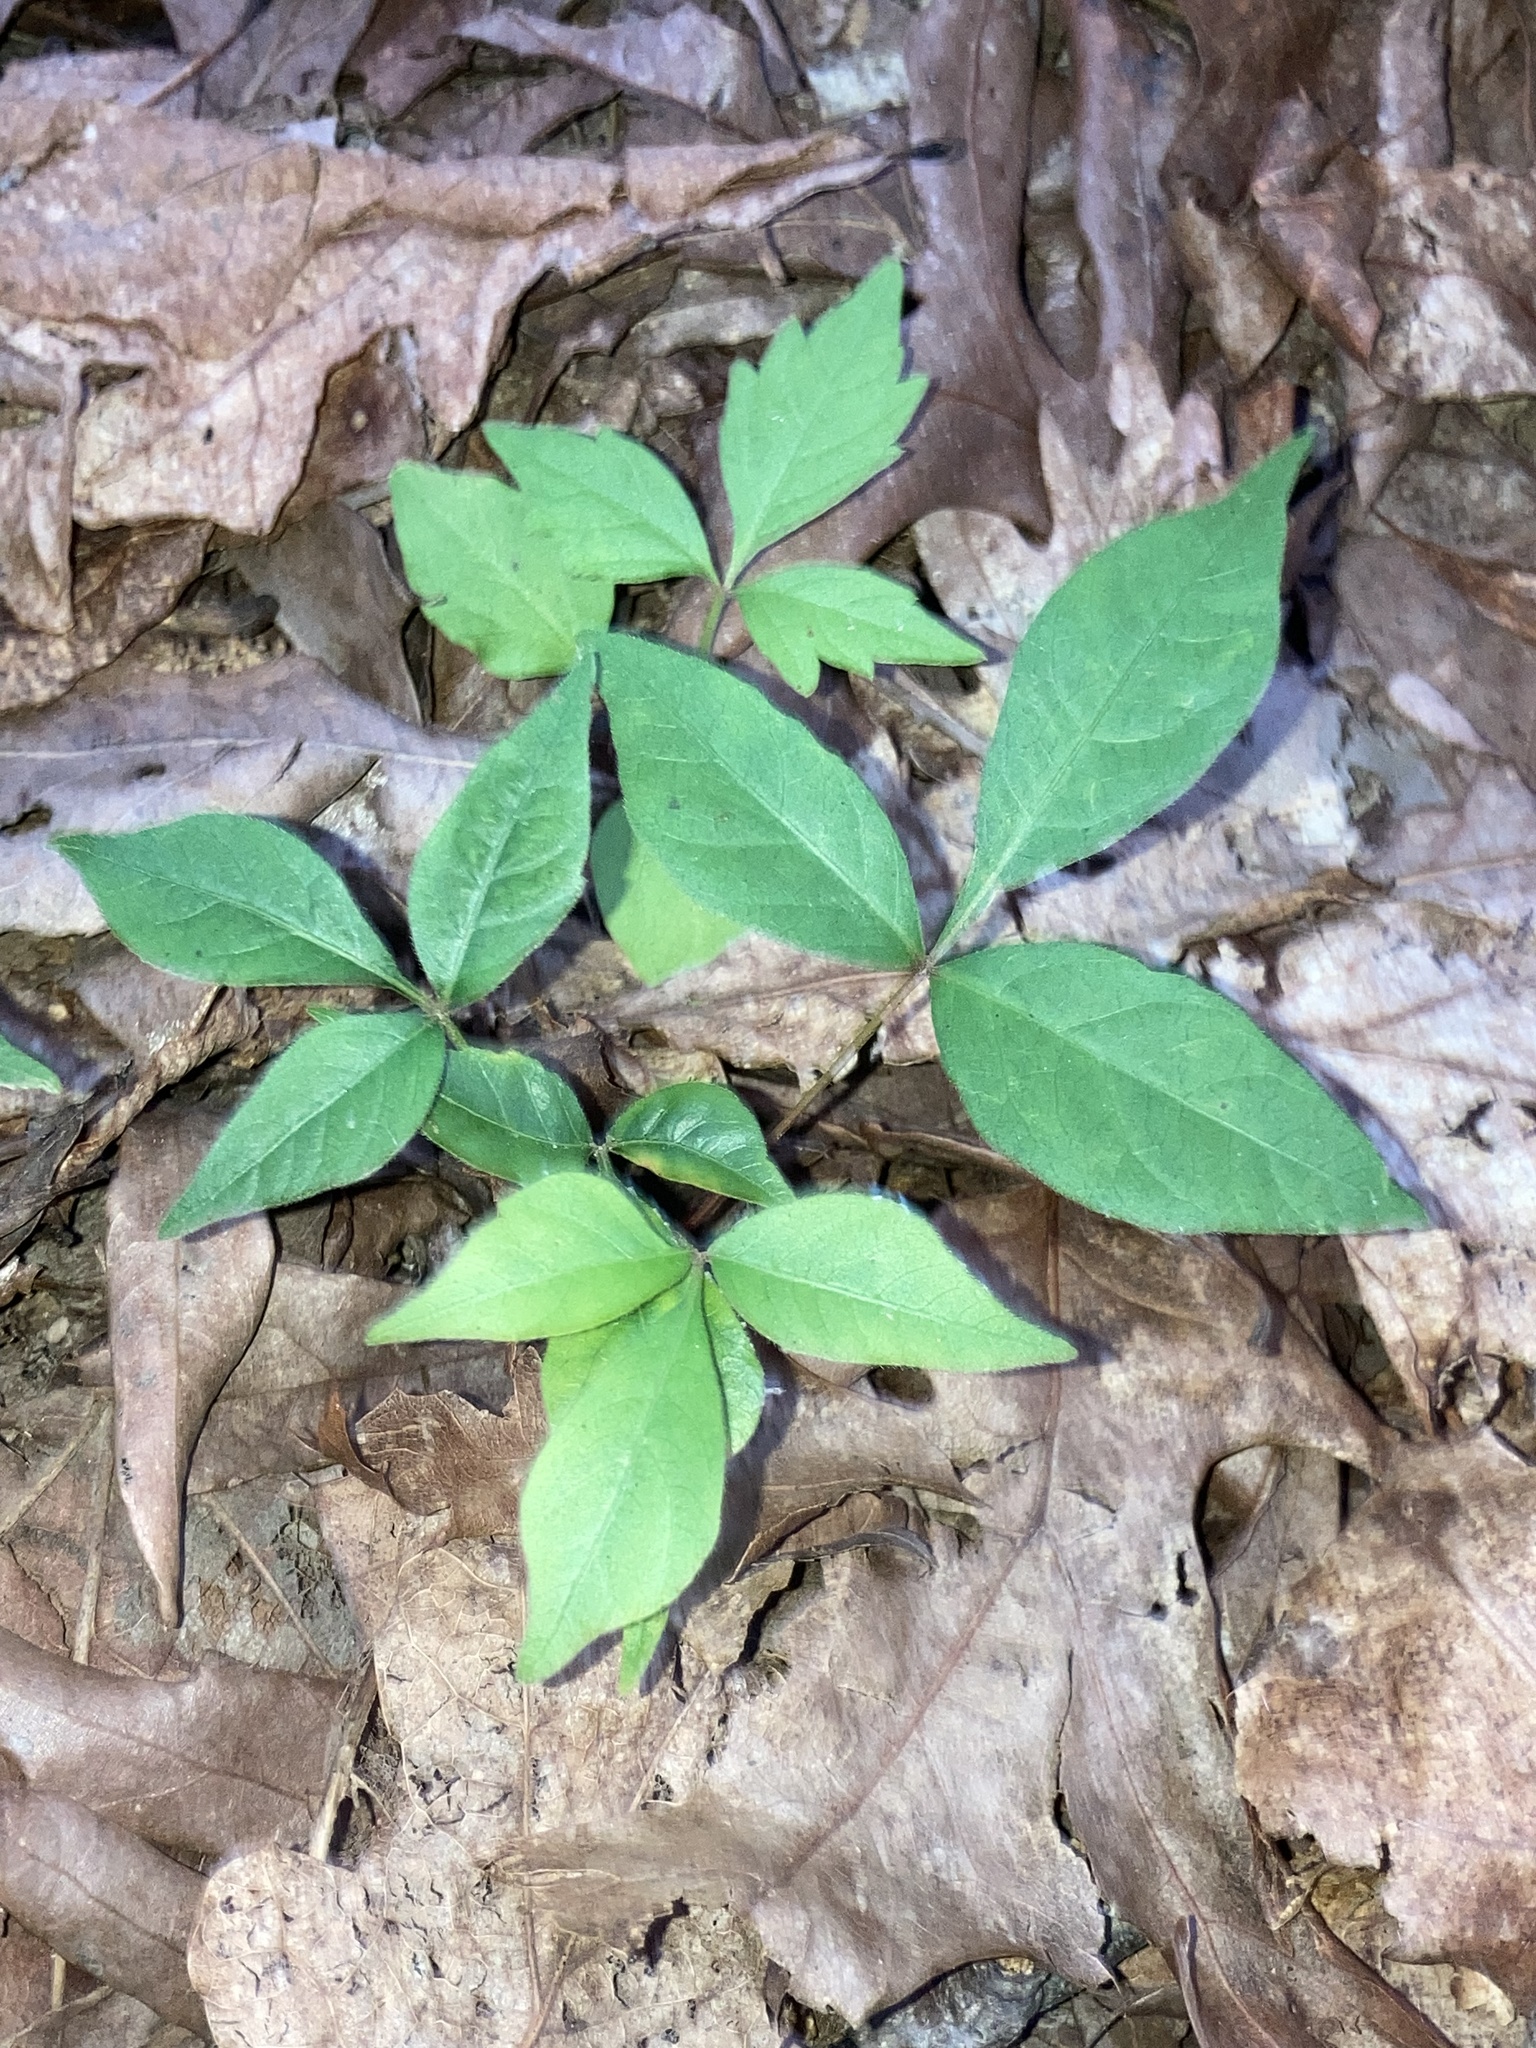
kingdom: Plantae
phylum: Tracheophyta
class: Magnoliopsida
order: Sapindales
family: Anacardiaceae
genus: Toxicodendron
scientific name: Toxicodendron radicans
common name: Poison ivy
